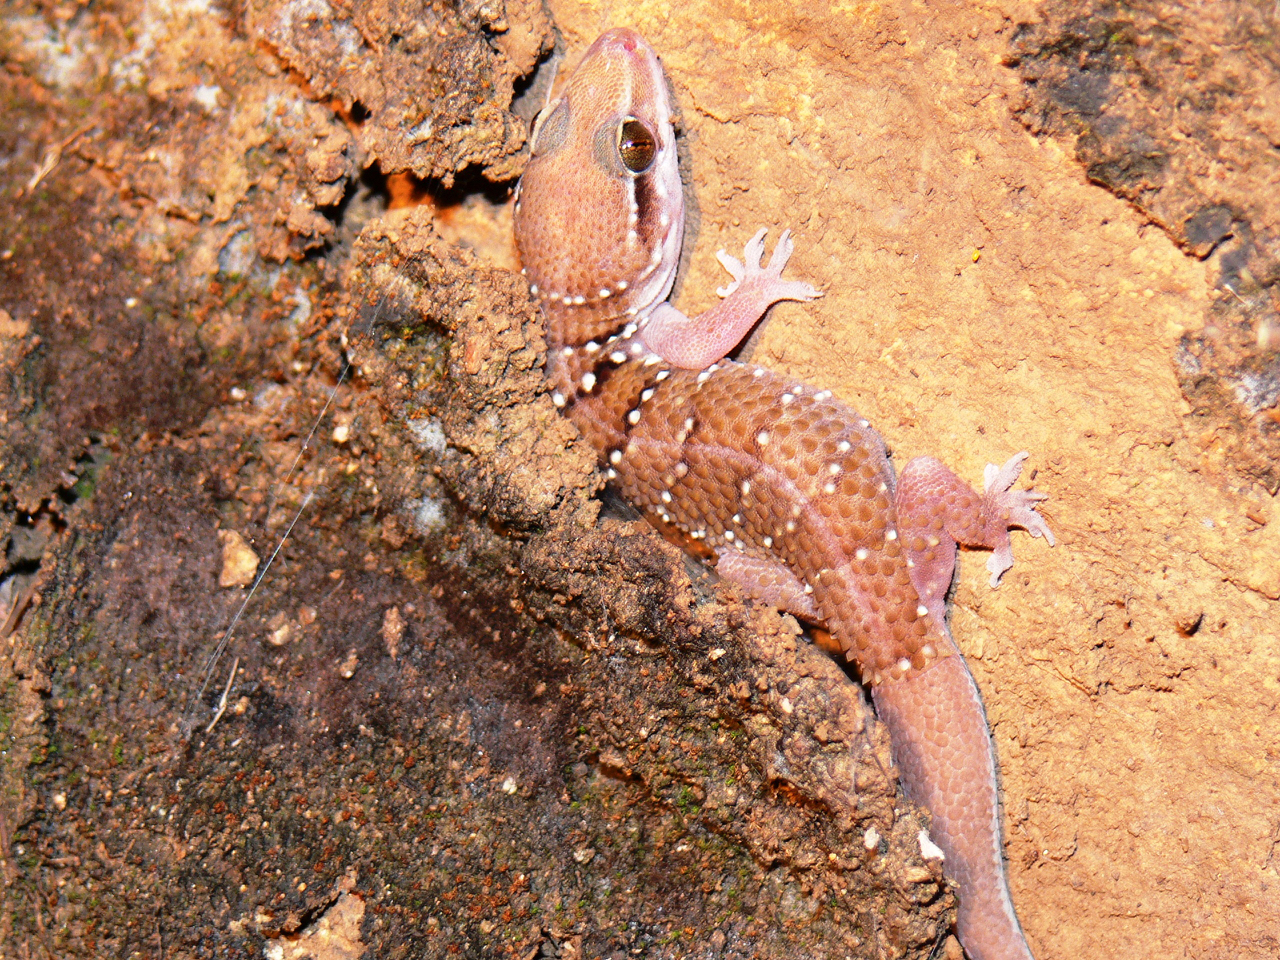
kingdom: Animalia
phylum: Chordata
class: Squamata
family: Gekkonidae
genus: Hemidactylus
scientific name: Hemidactylus triedrus
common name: Blotched house gecko
